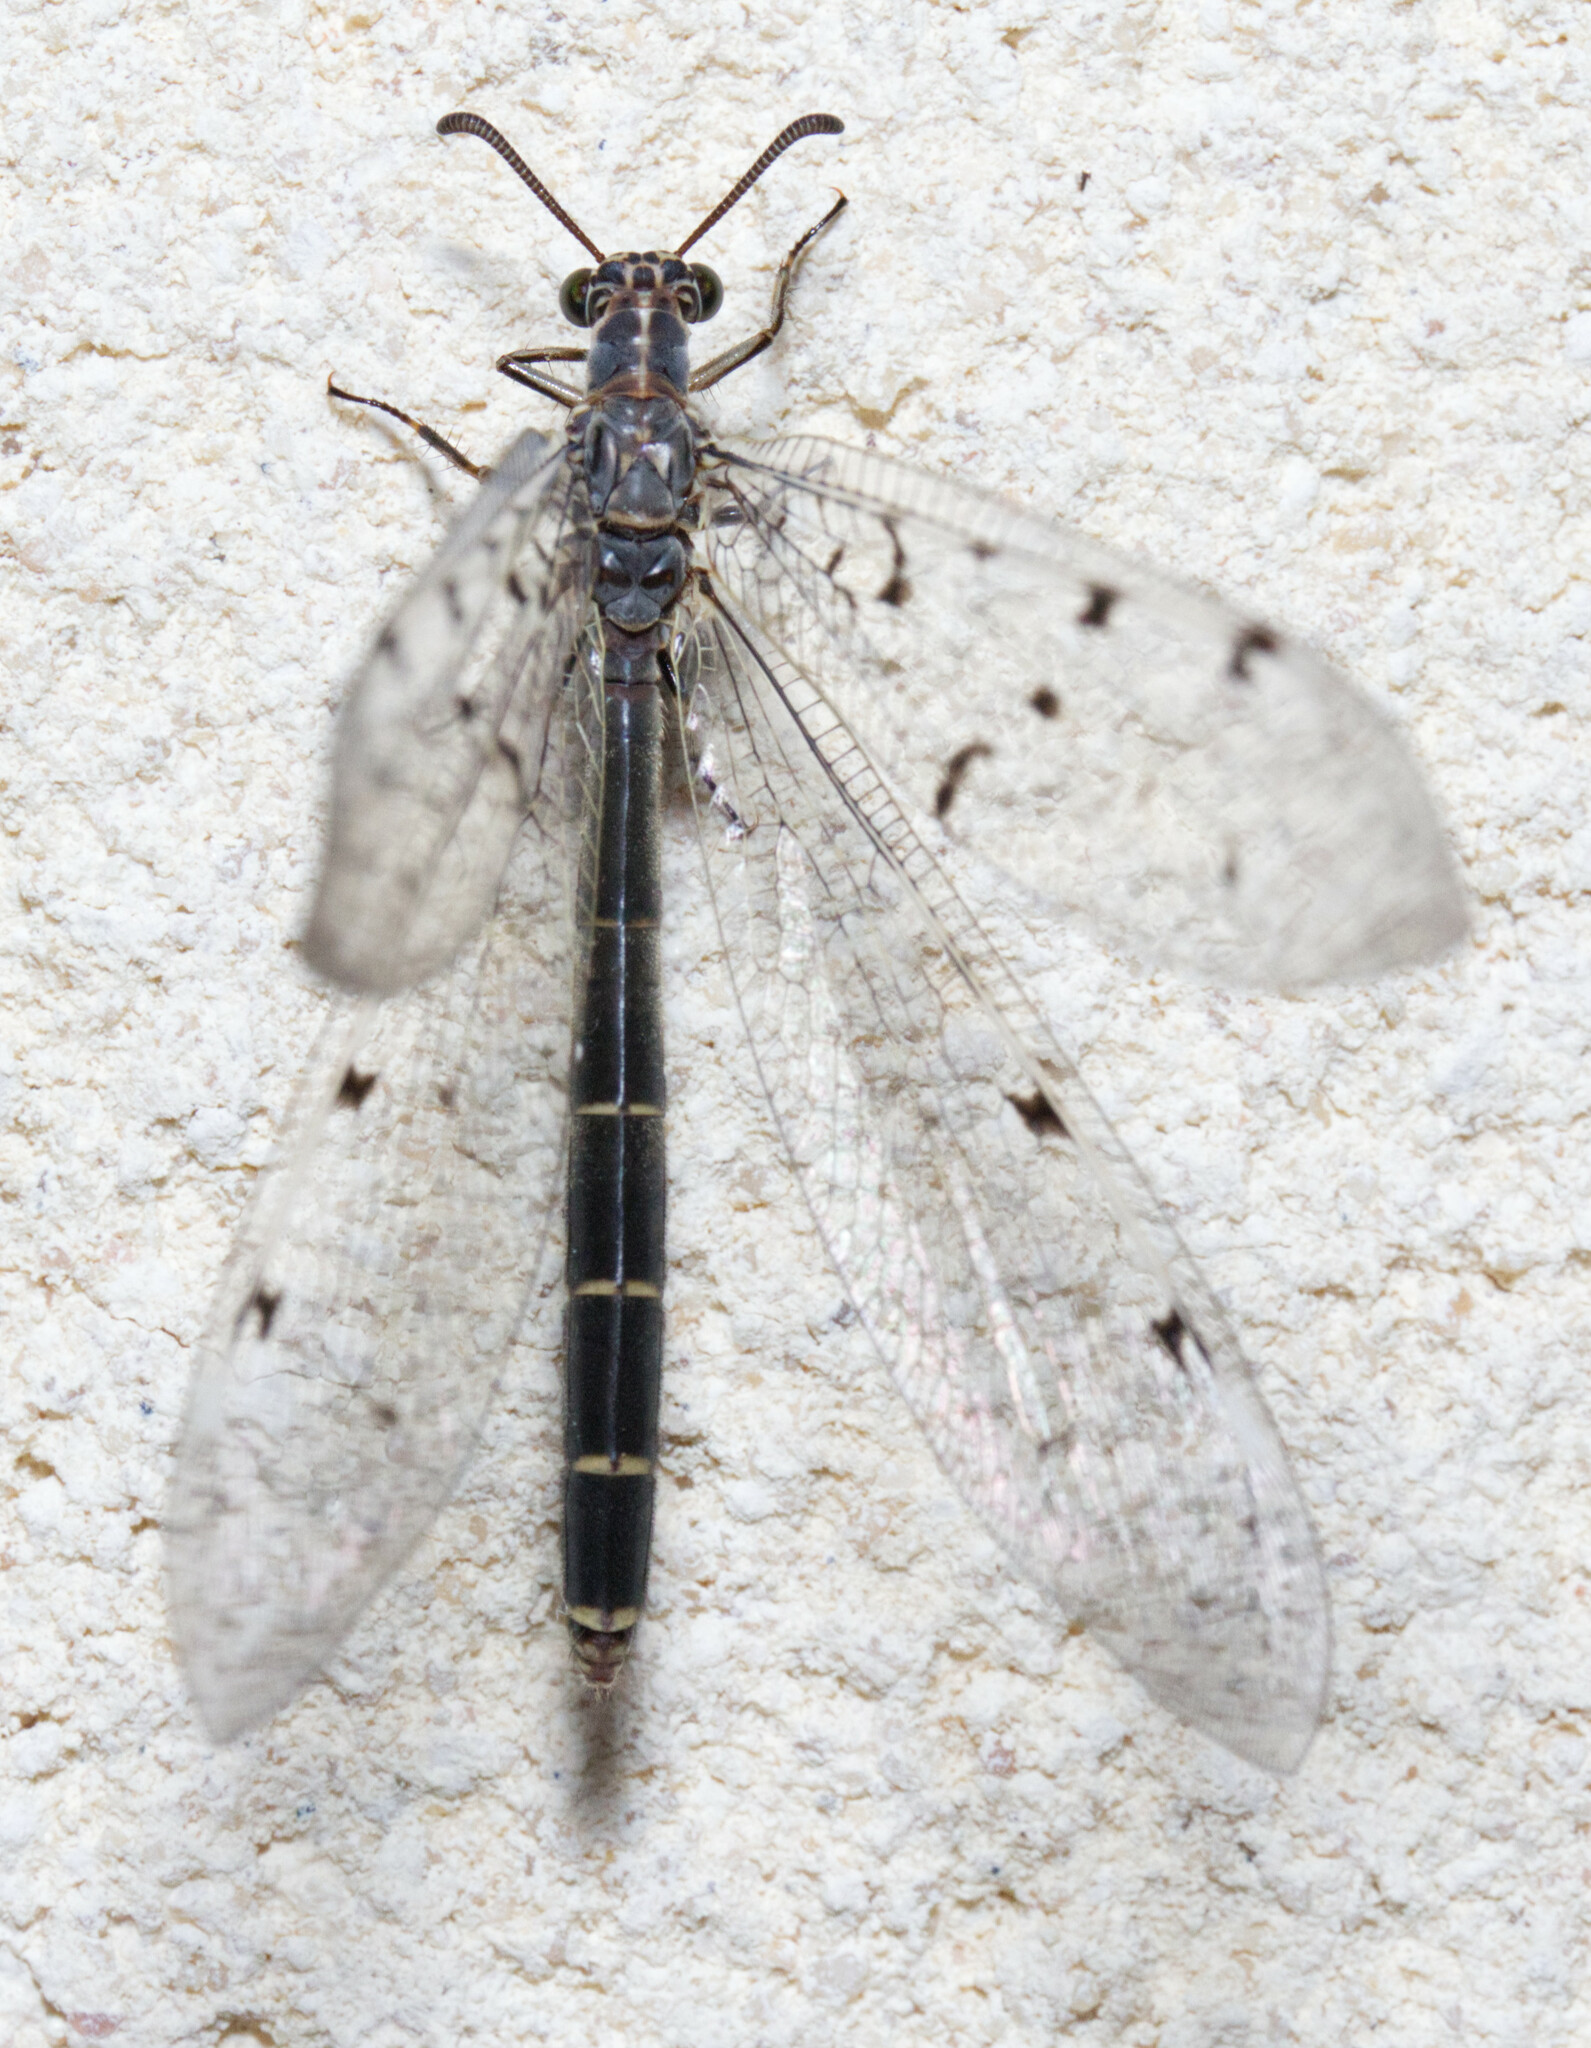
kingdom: Animalia
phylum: Arthropoda
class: Insecta
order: Neuroptera
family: Myrmeleontidae
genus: Euroleon
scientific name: Euroleon nostras
